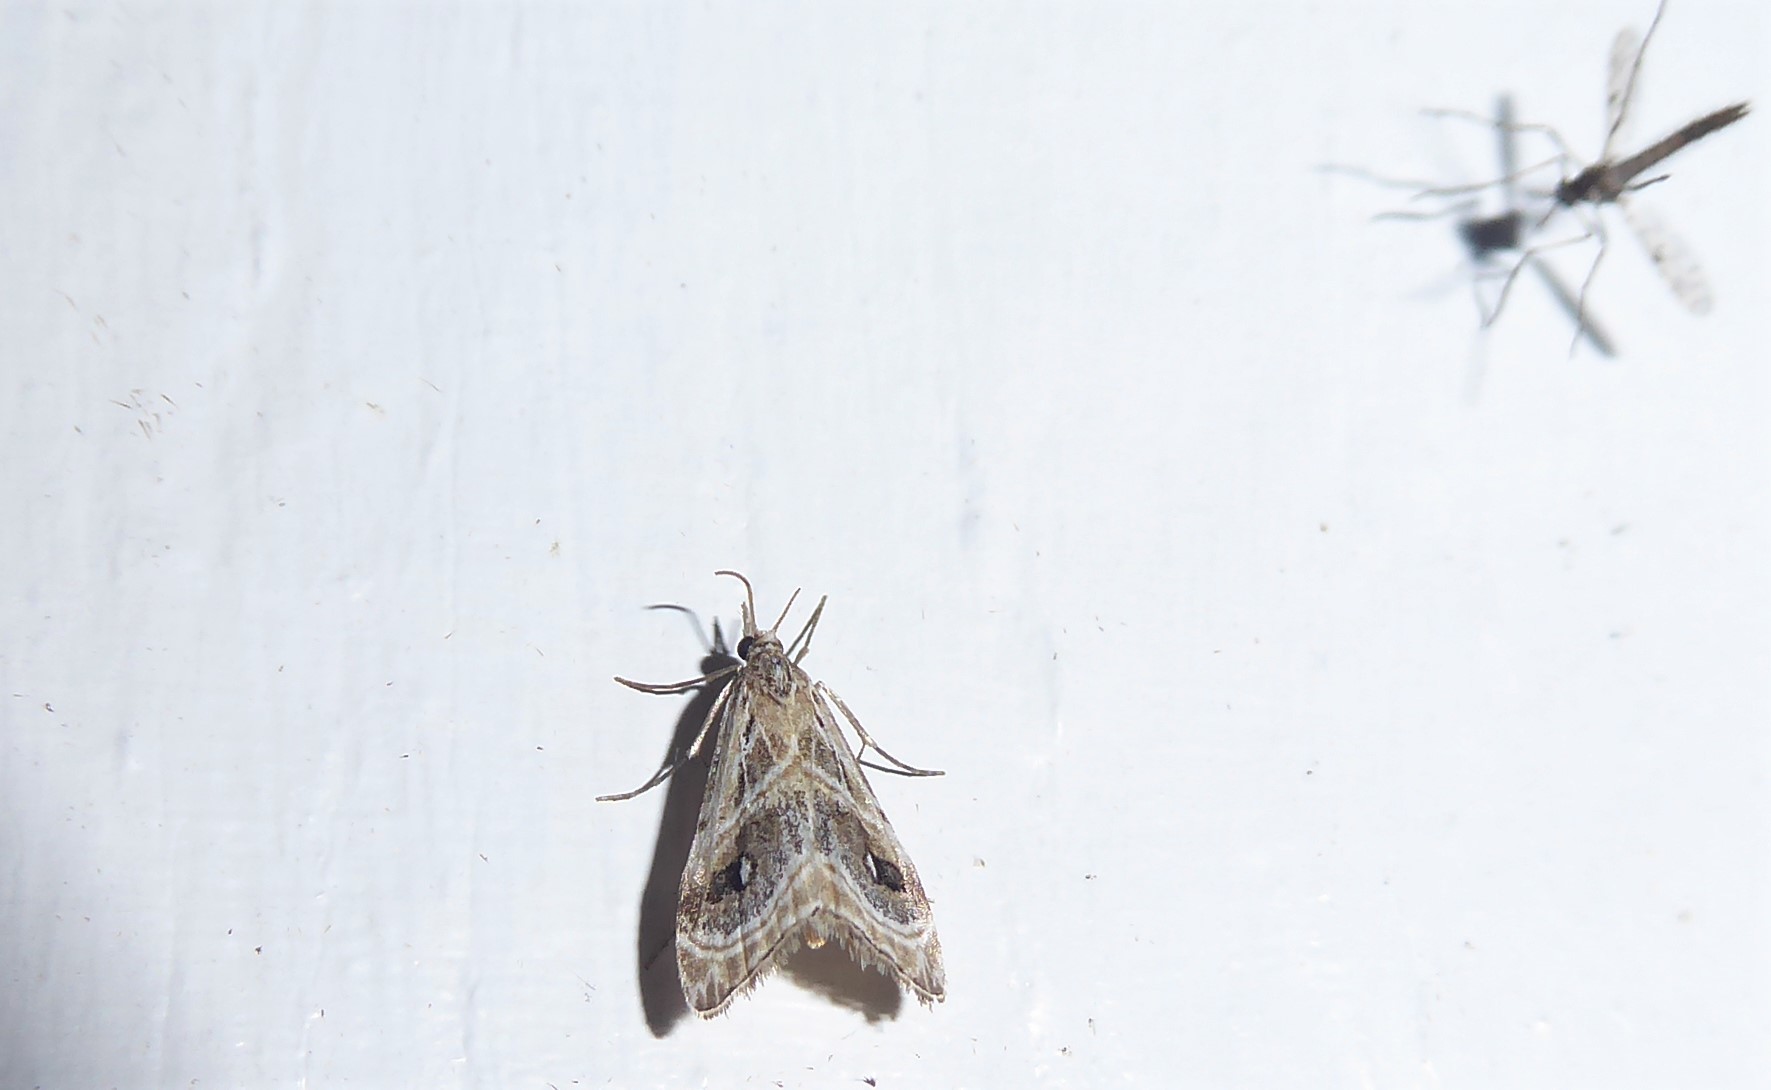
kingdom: Animalia
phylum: Arthropoda
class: Insecta
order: Lepidoptera
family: Crambidae
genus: Gadira
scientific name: Gadira acerella
